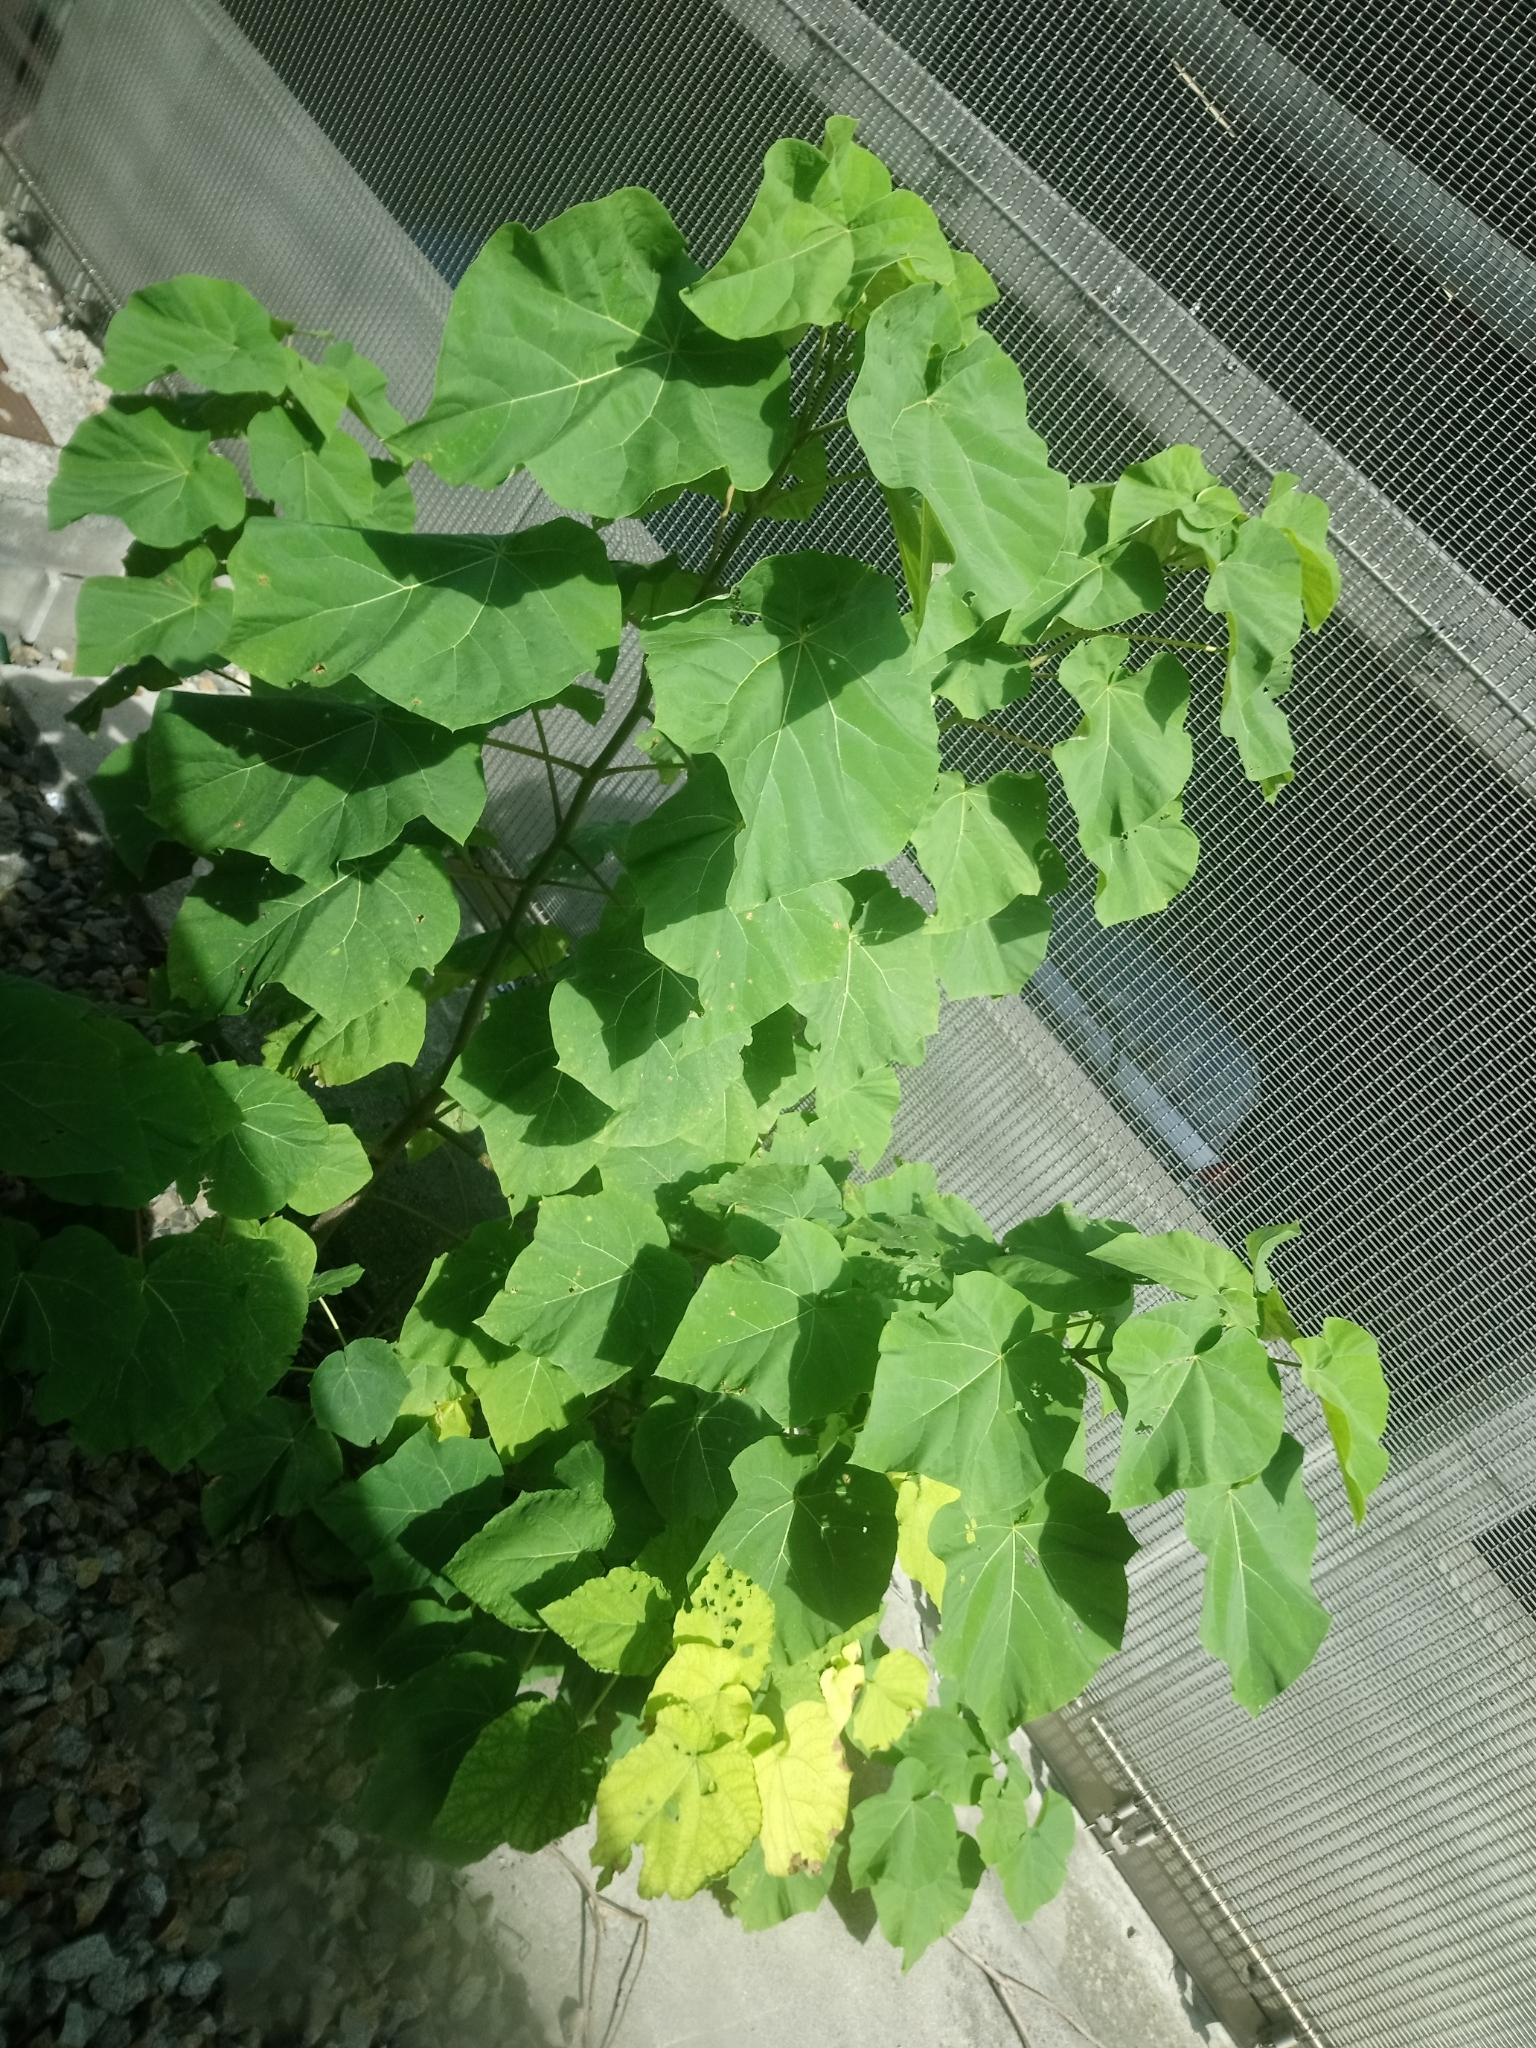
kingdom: Plantae
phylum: Tracheophyta
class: Magnoliopsida
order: Lamiales
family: Paulowniaceae
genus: Paulownia
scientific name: Paulownia tomentosa
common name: Foxglove-tree
